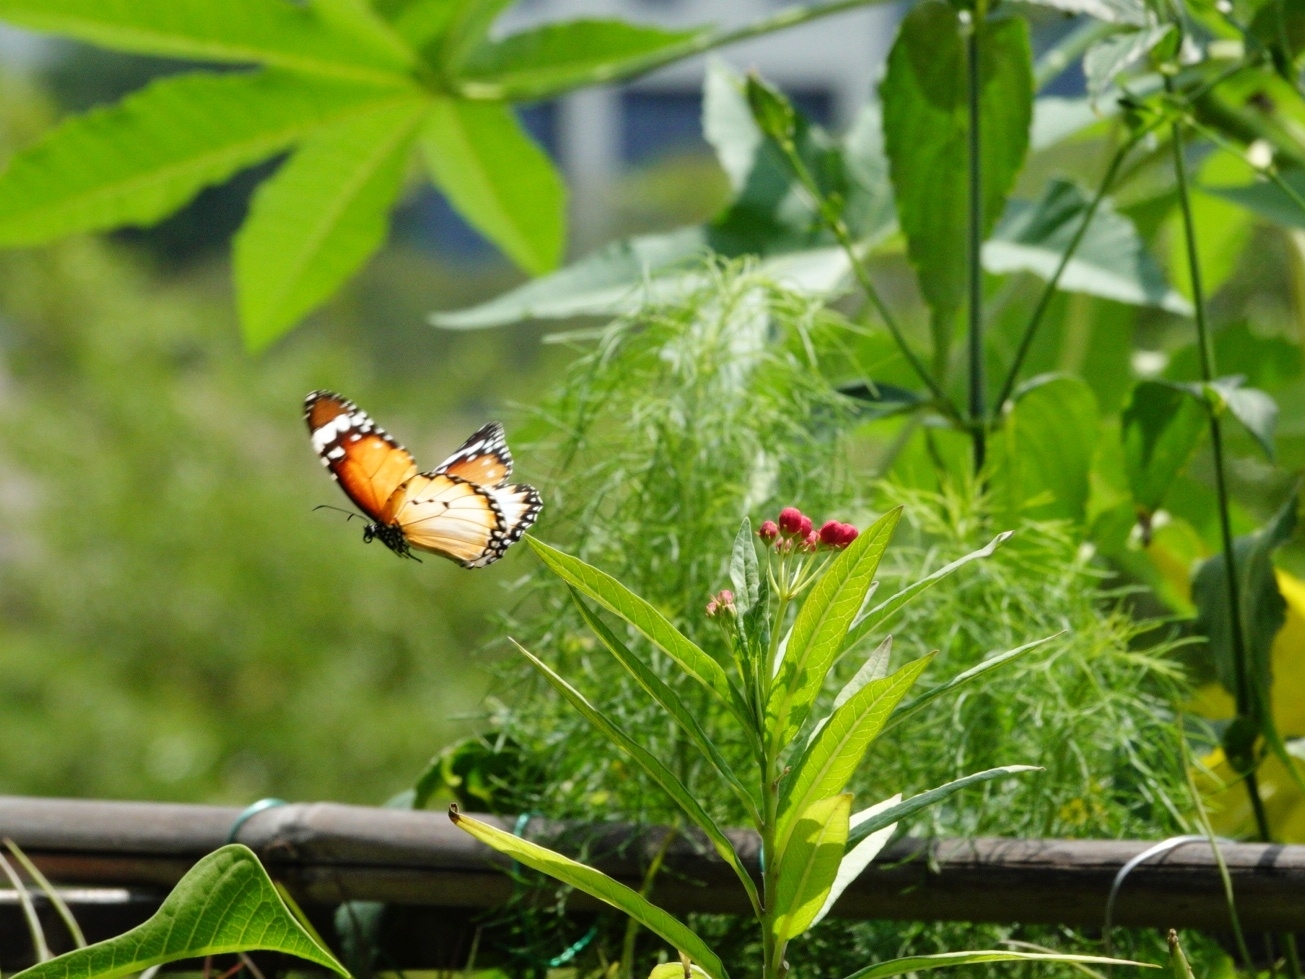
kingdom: Animalia
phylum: Arthropoda
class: Insecta
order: Lepidoptera
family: Nymphalidae
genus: Danaus
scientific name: Danaus chrysippus
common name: Plain tiger
